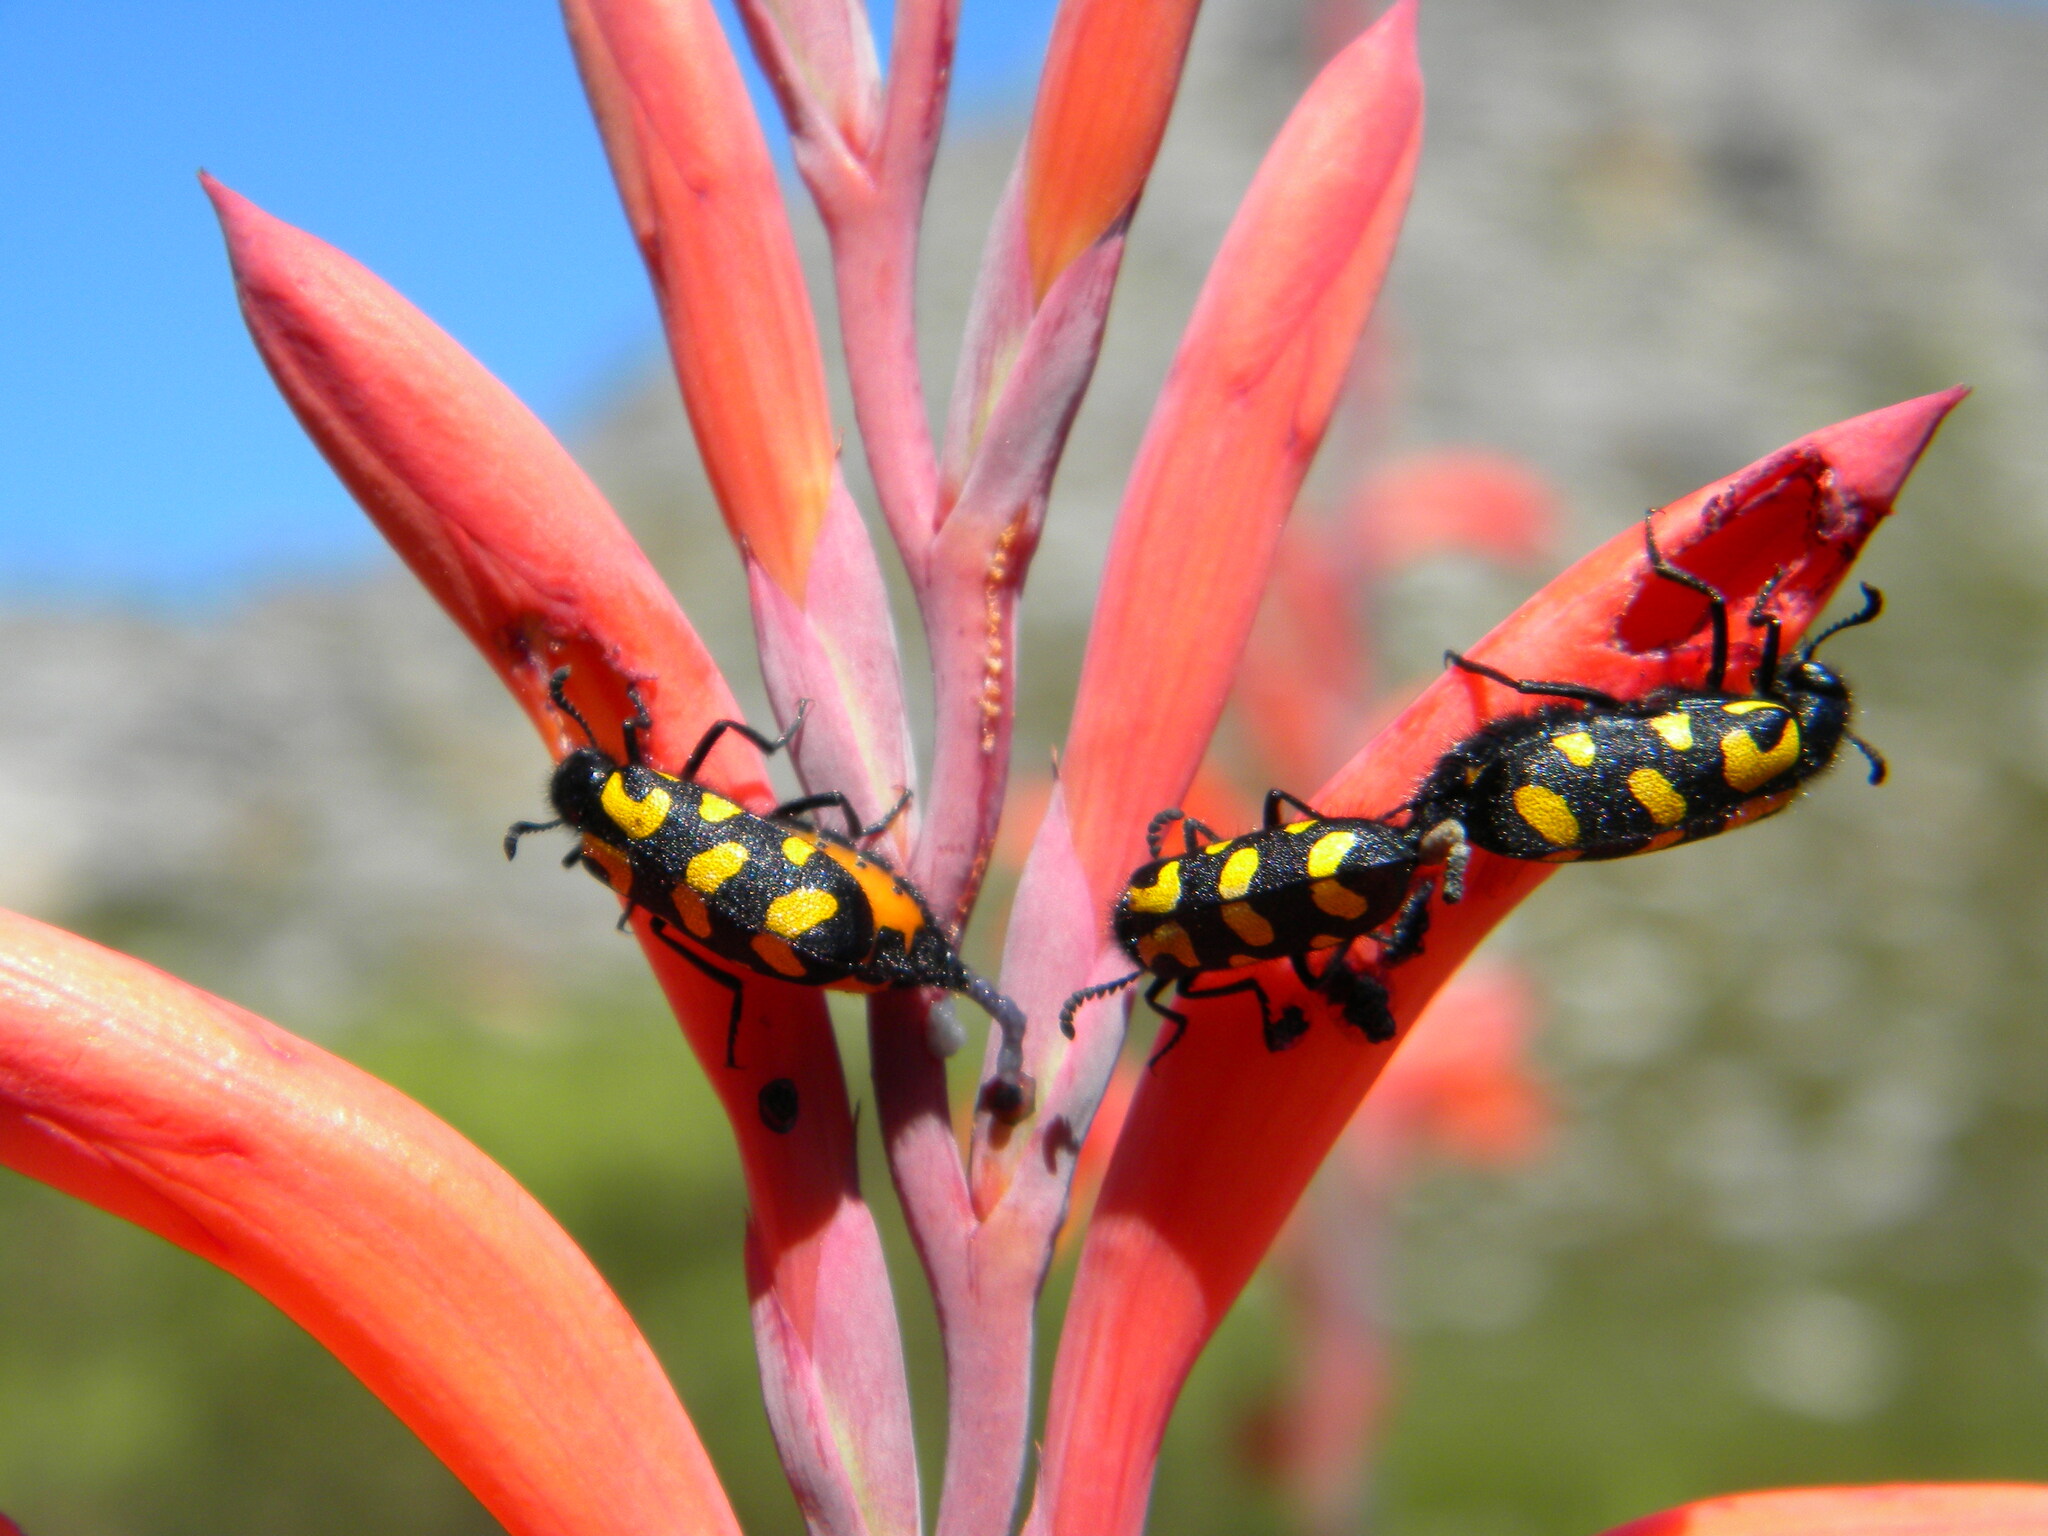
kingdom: Animalia
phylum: Arthropoda
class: Insecta
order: Coleoptera
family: Meloidae
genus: Ceroctis
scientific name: Ceroctis capensis
